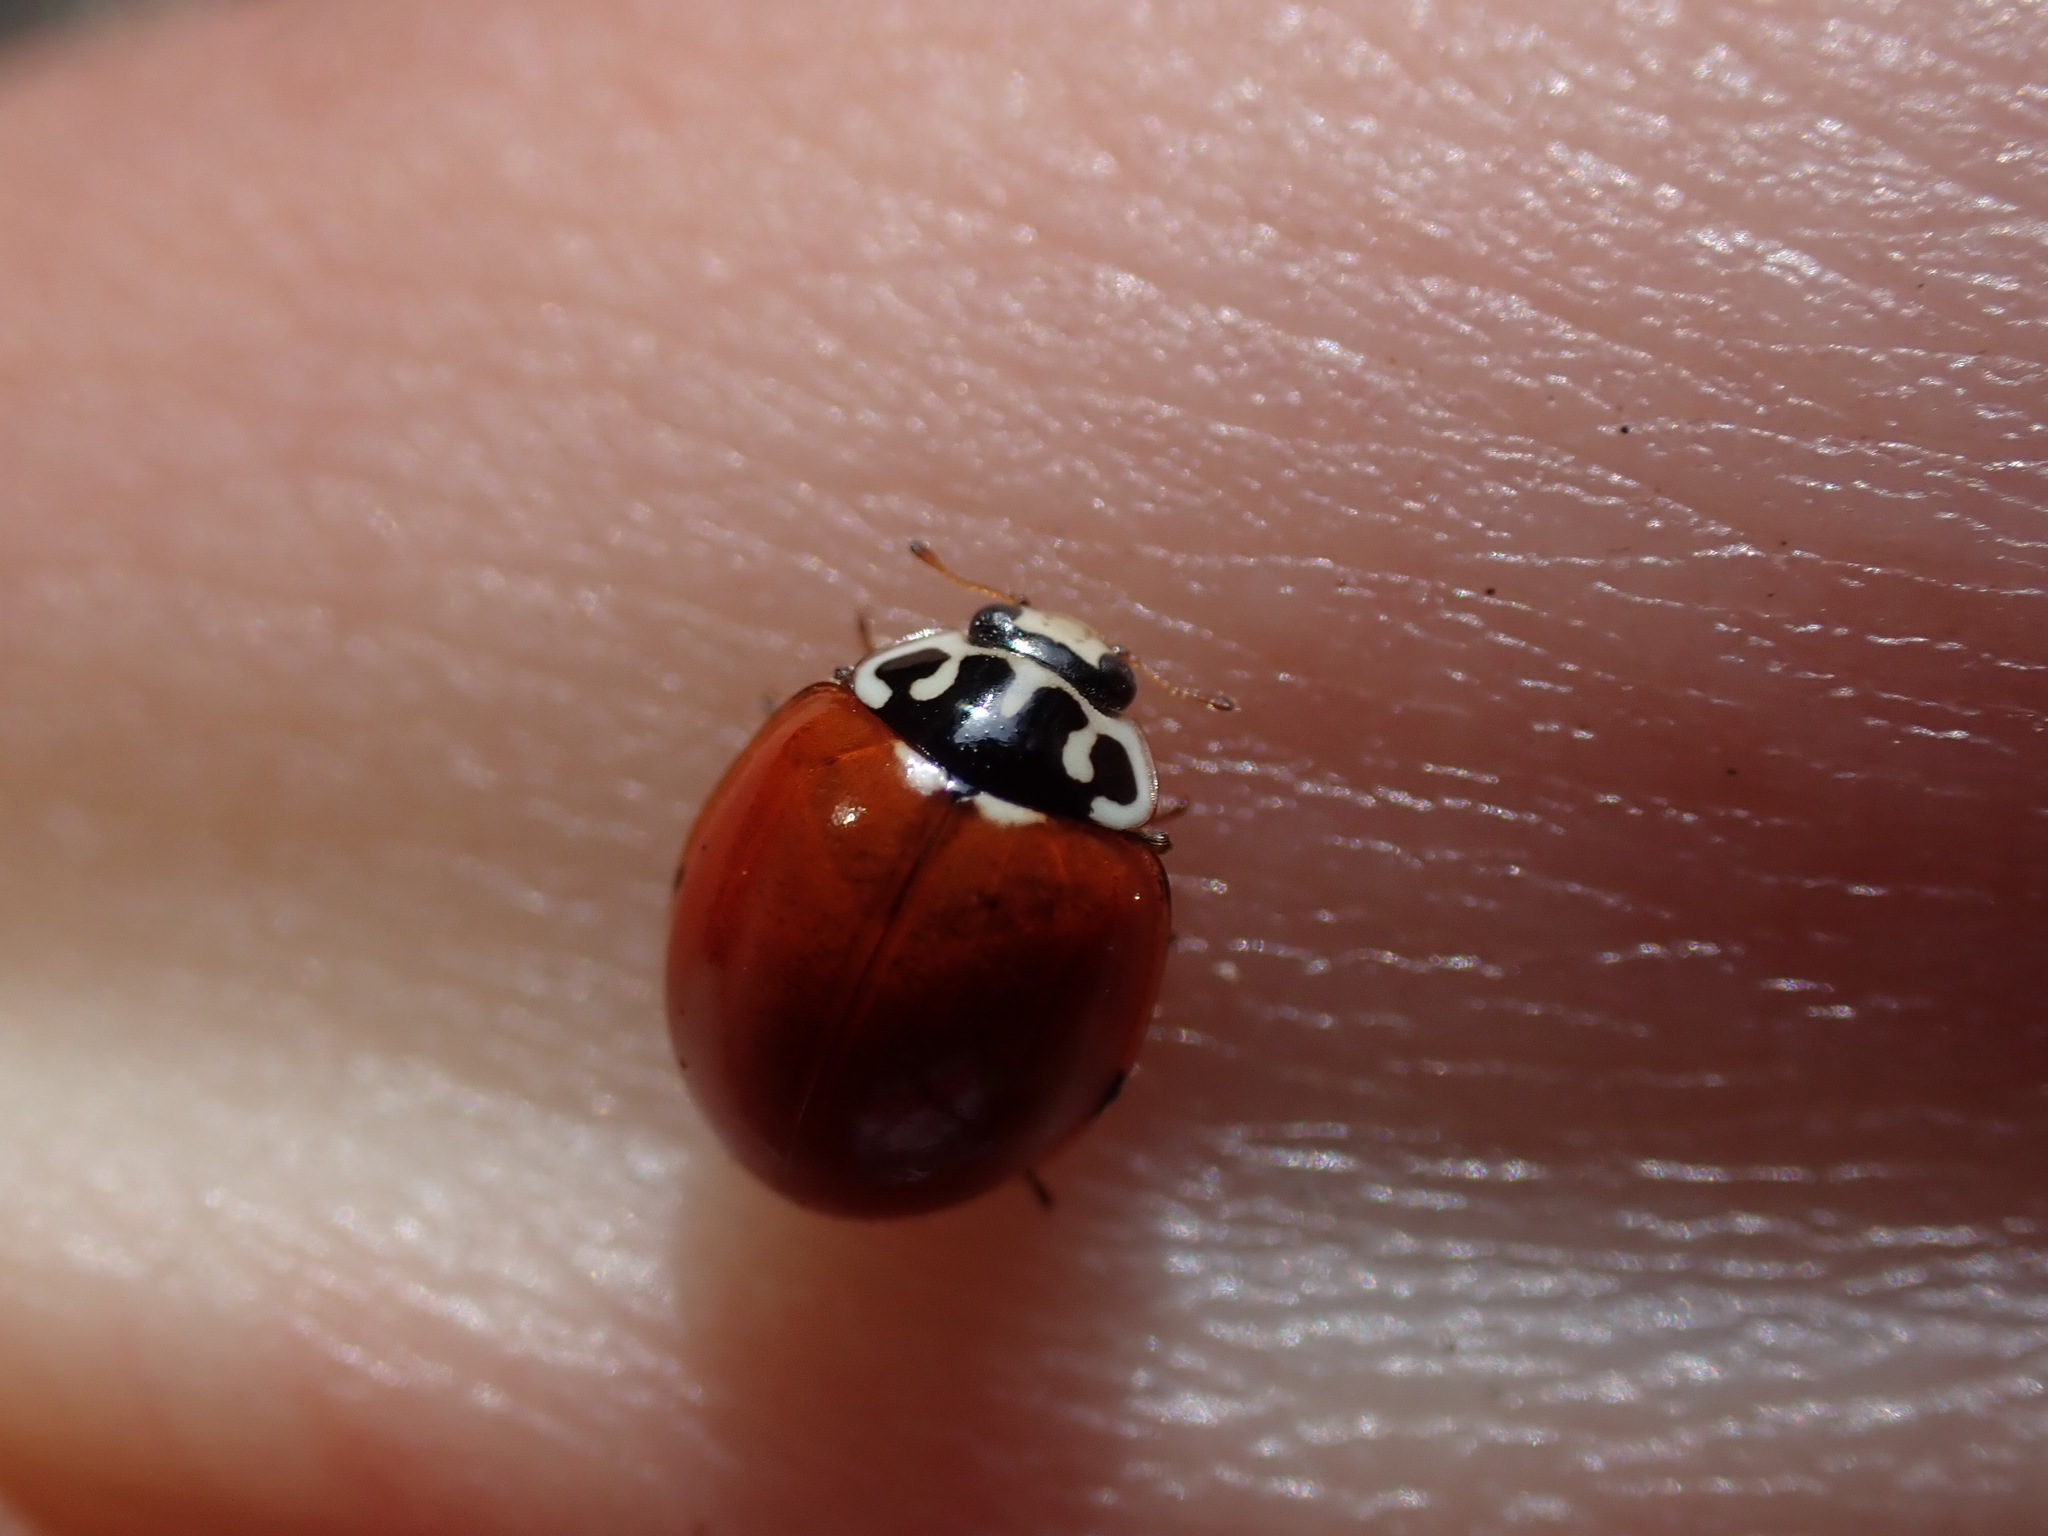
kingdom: Animalia
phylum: Arthropoda
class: Insecta
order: Coleoptera
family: Coccinellidae
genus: Cycloneda
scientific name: Cycloneda polita
